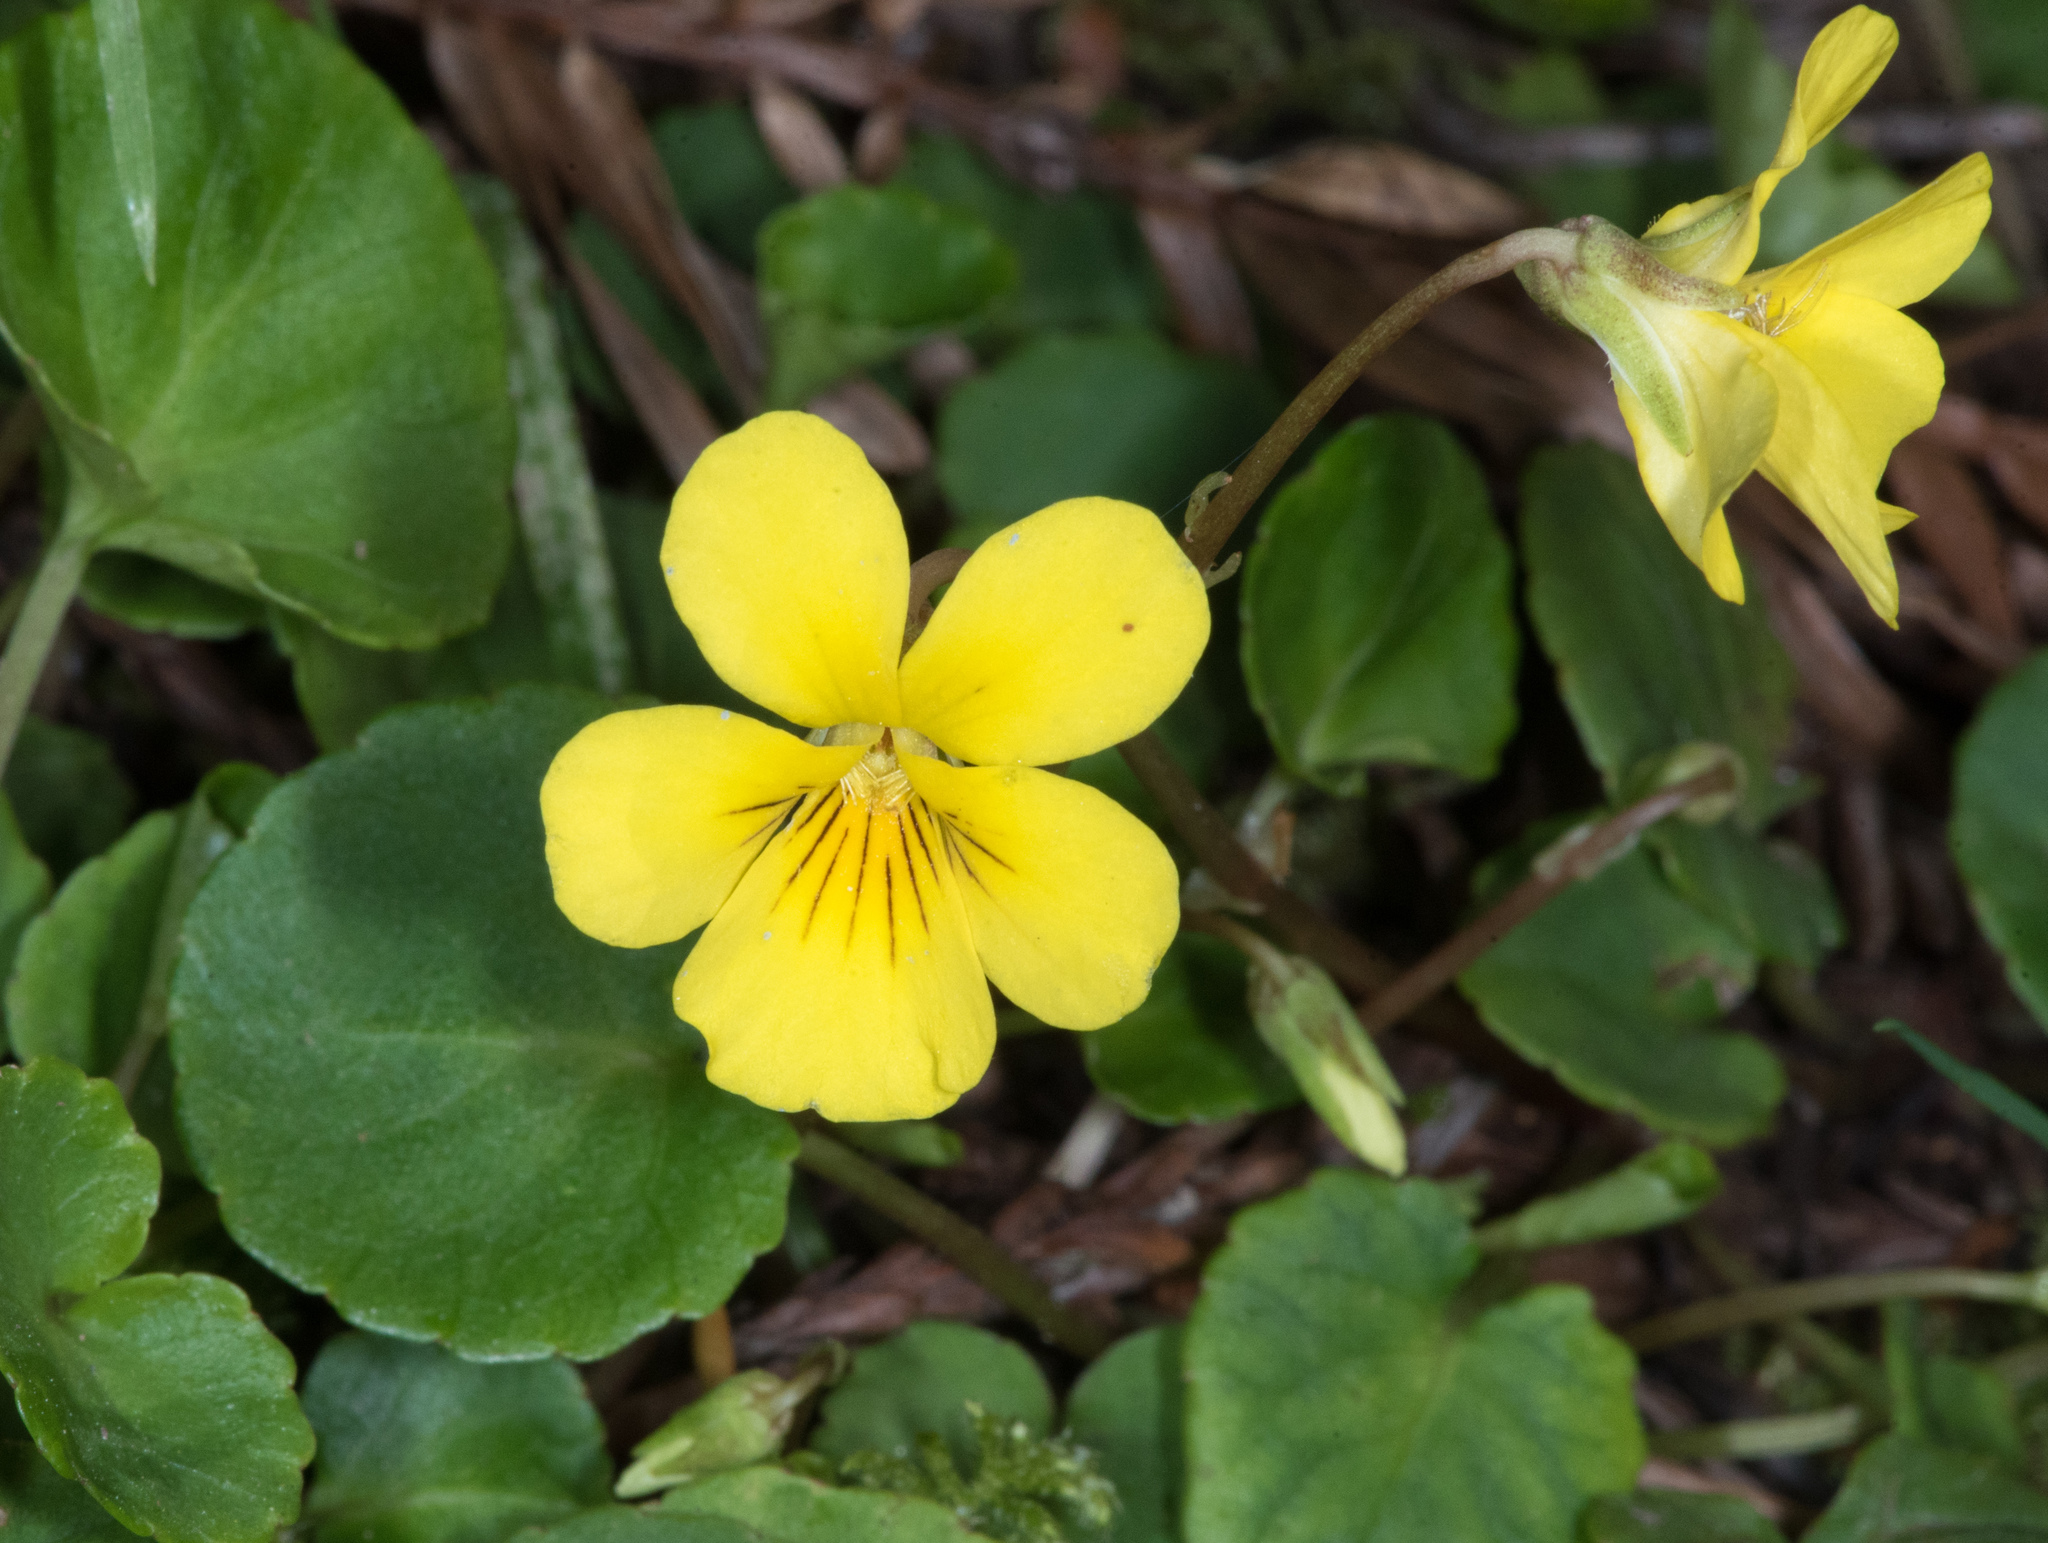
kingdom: Plantae
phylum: Tracheophyta
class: Magnoliopsida
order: Malpighiales
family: Violaceae
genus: Viola
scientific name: Viola sempervirens
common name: Evergreen violet
